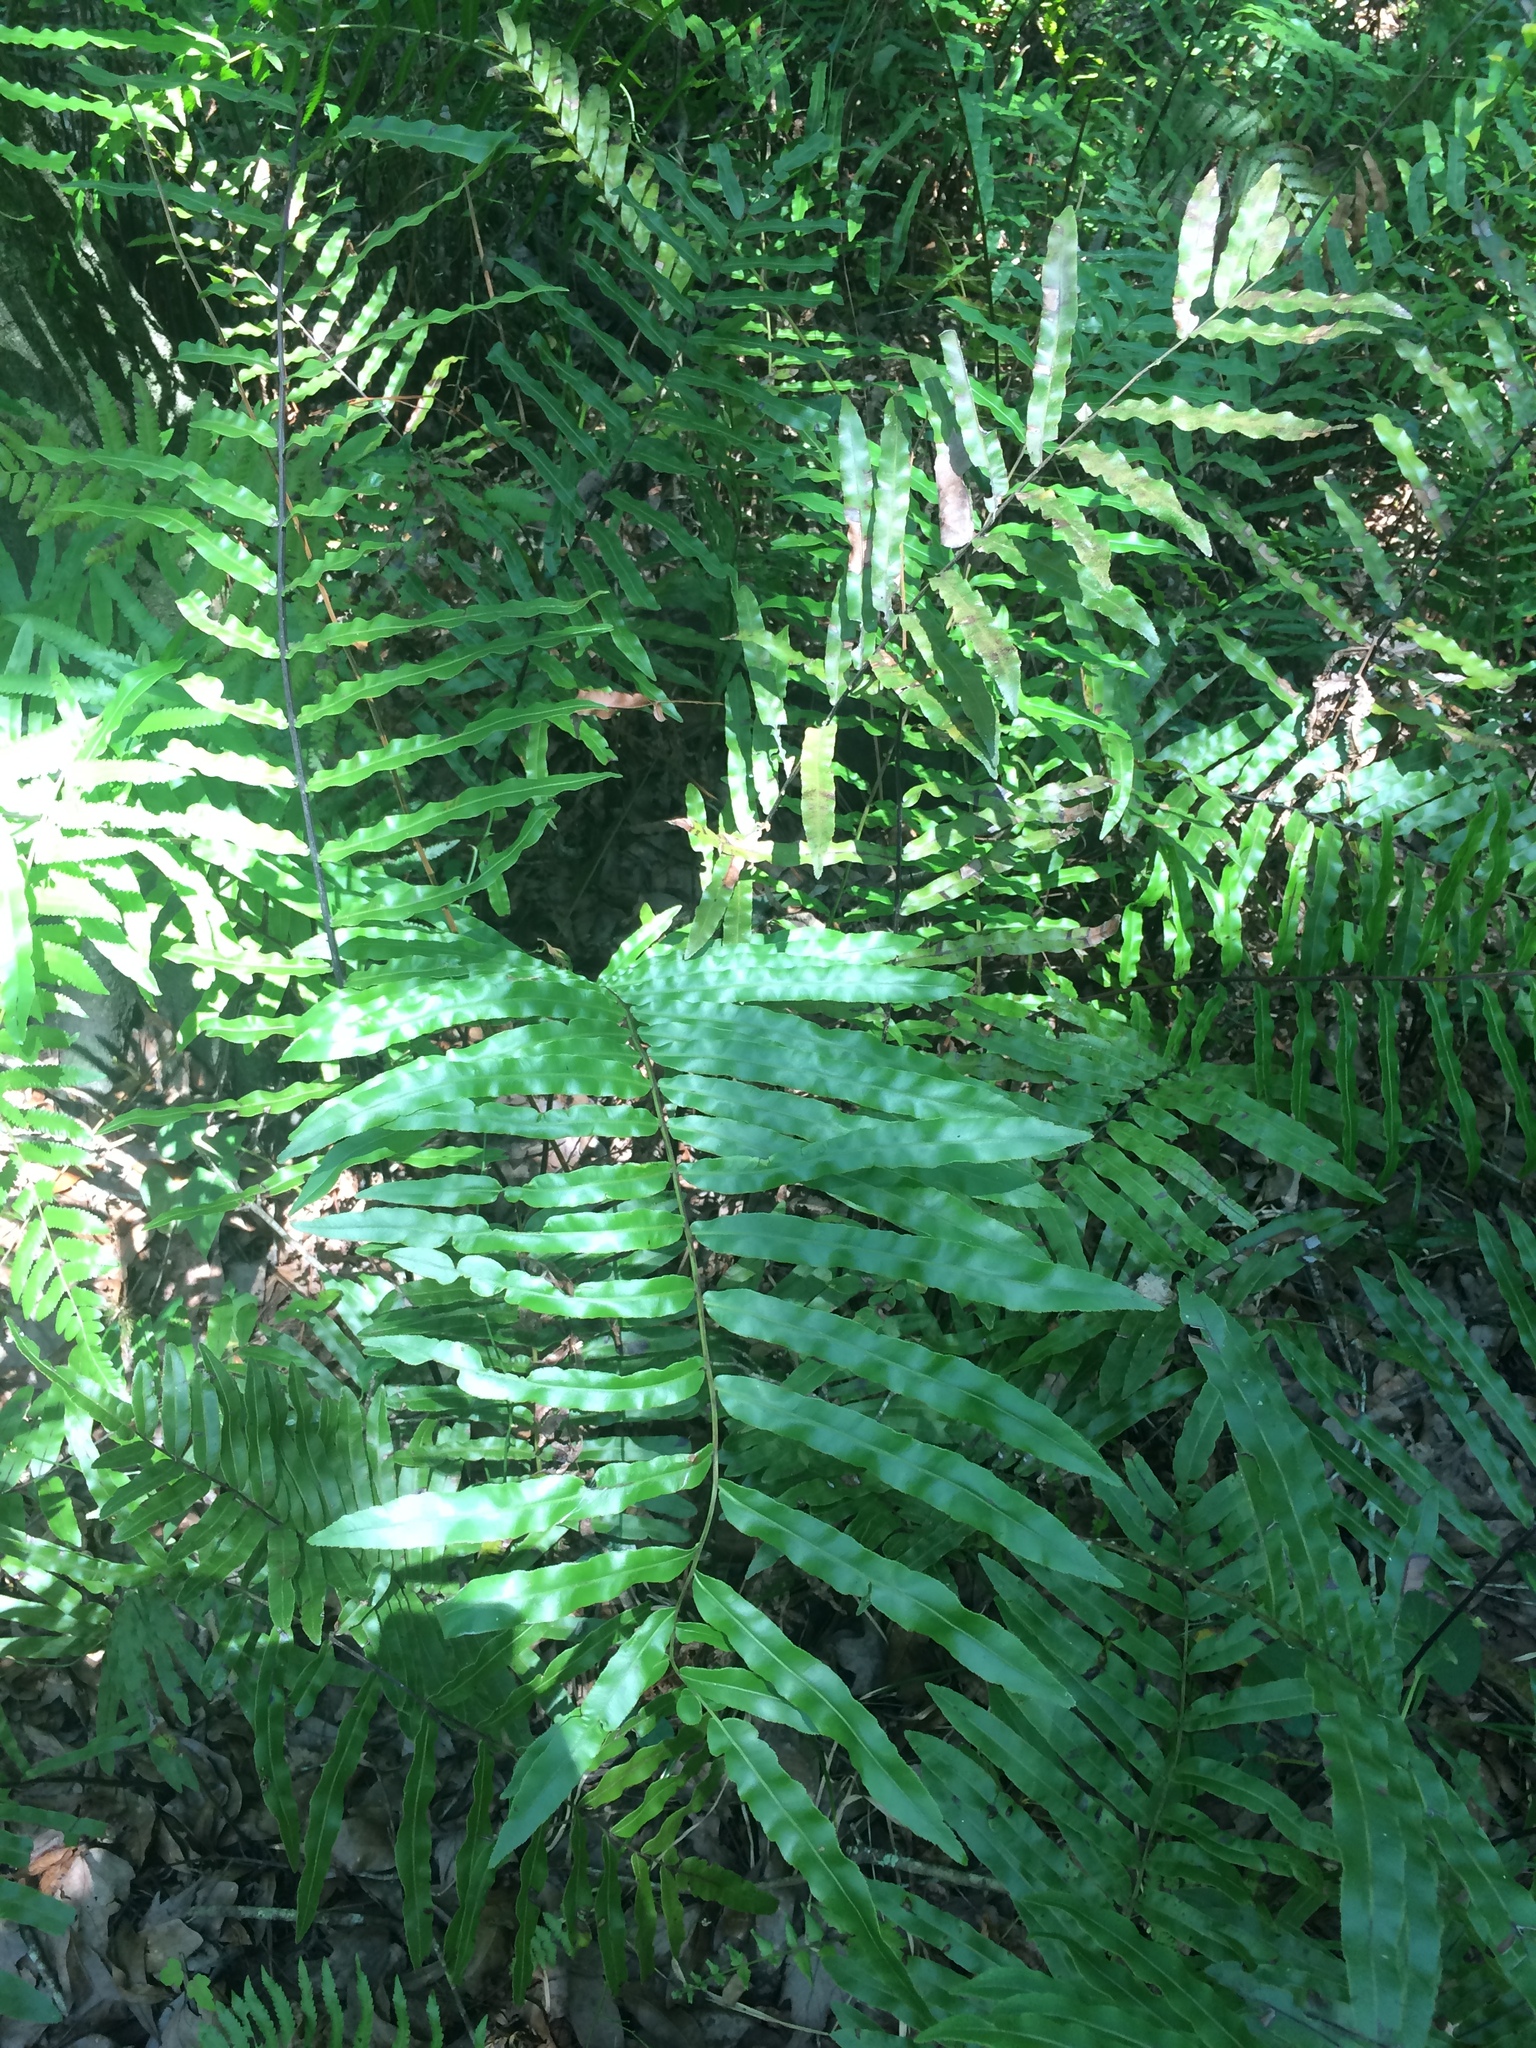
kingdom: Plantae
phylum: Tracheophyta
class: Polypodiopsida
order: Polypodiales
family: Blechnaceae
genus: Telmatoblechnum
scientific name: Telmatoblechnum serrulatum
